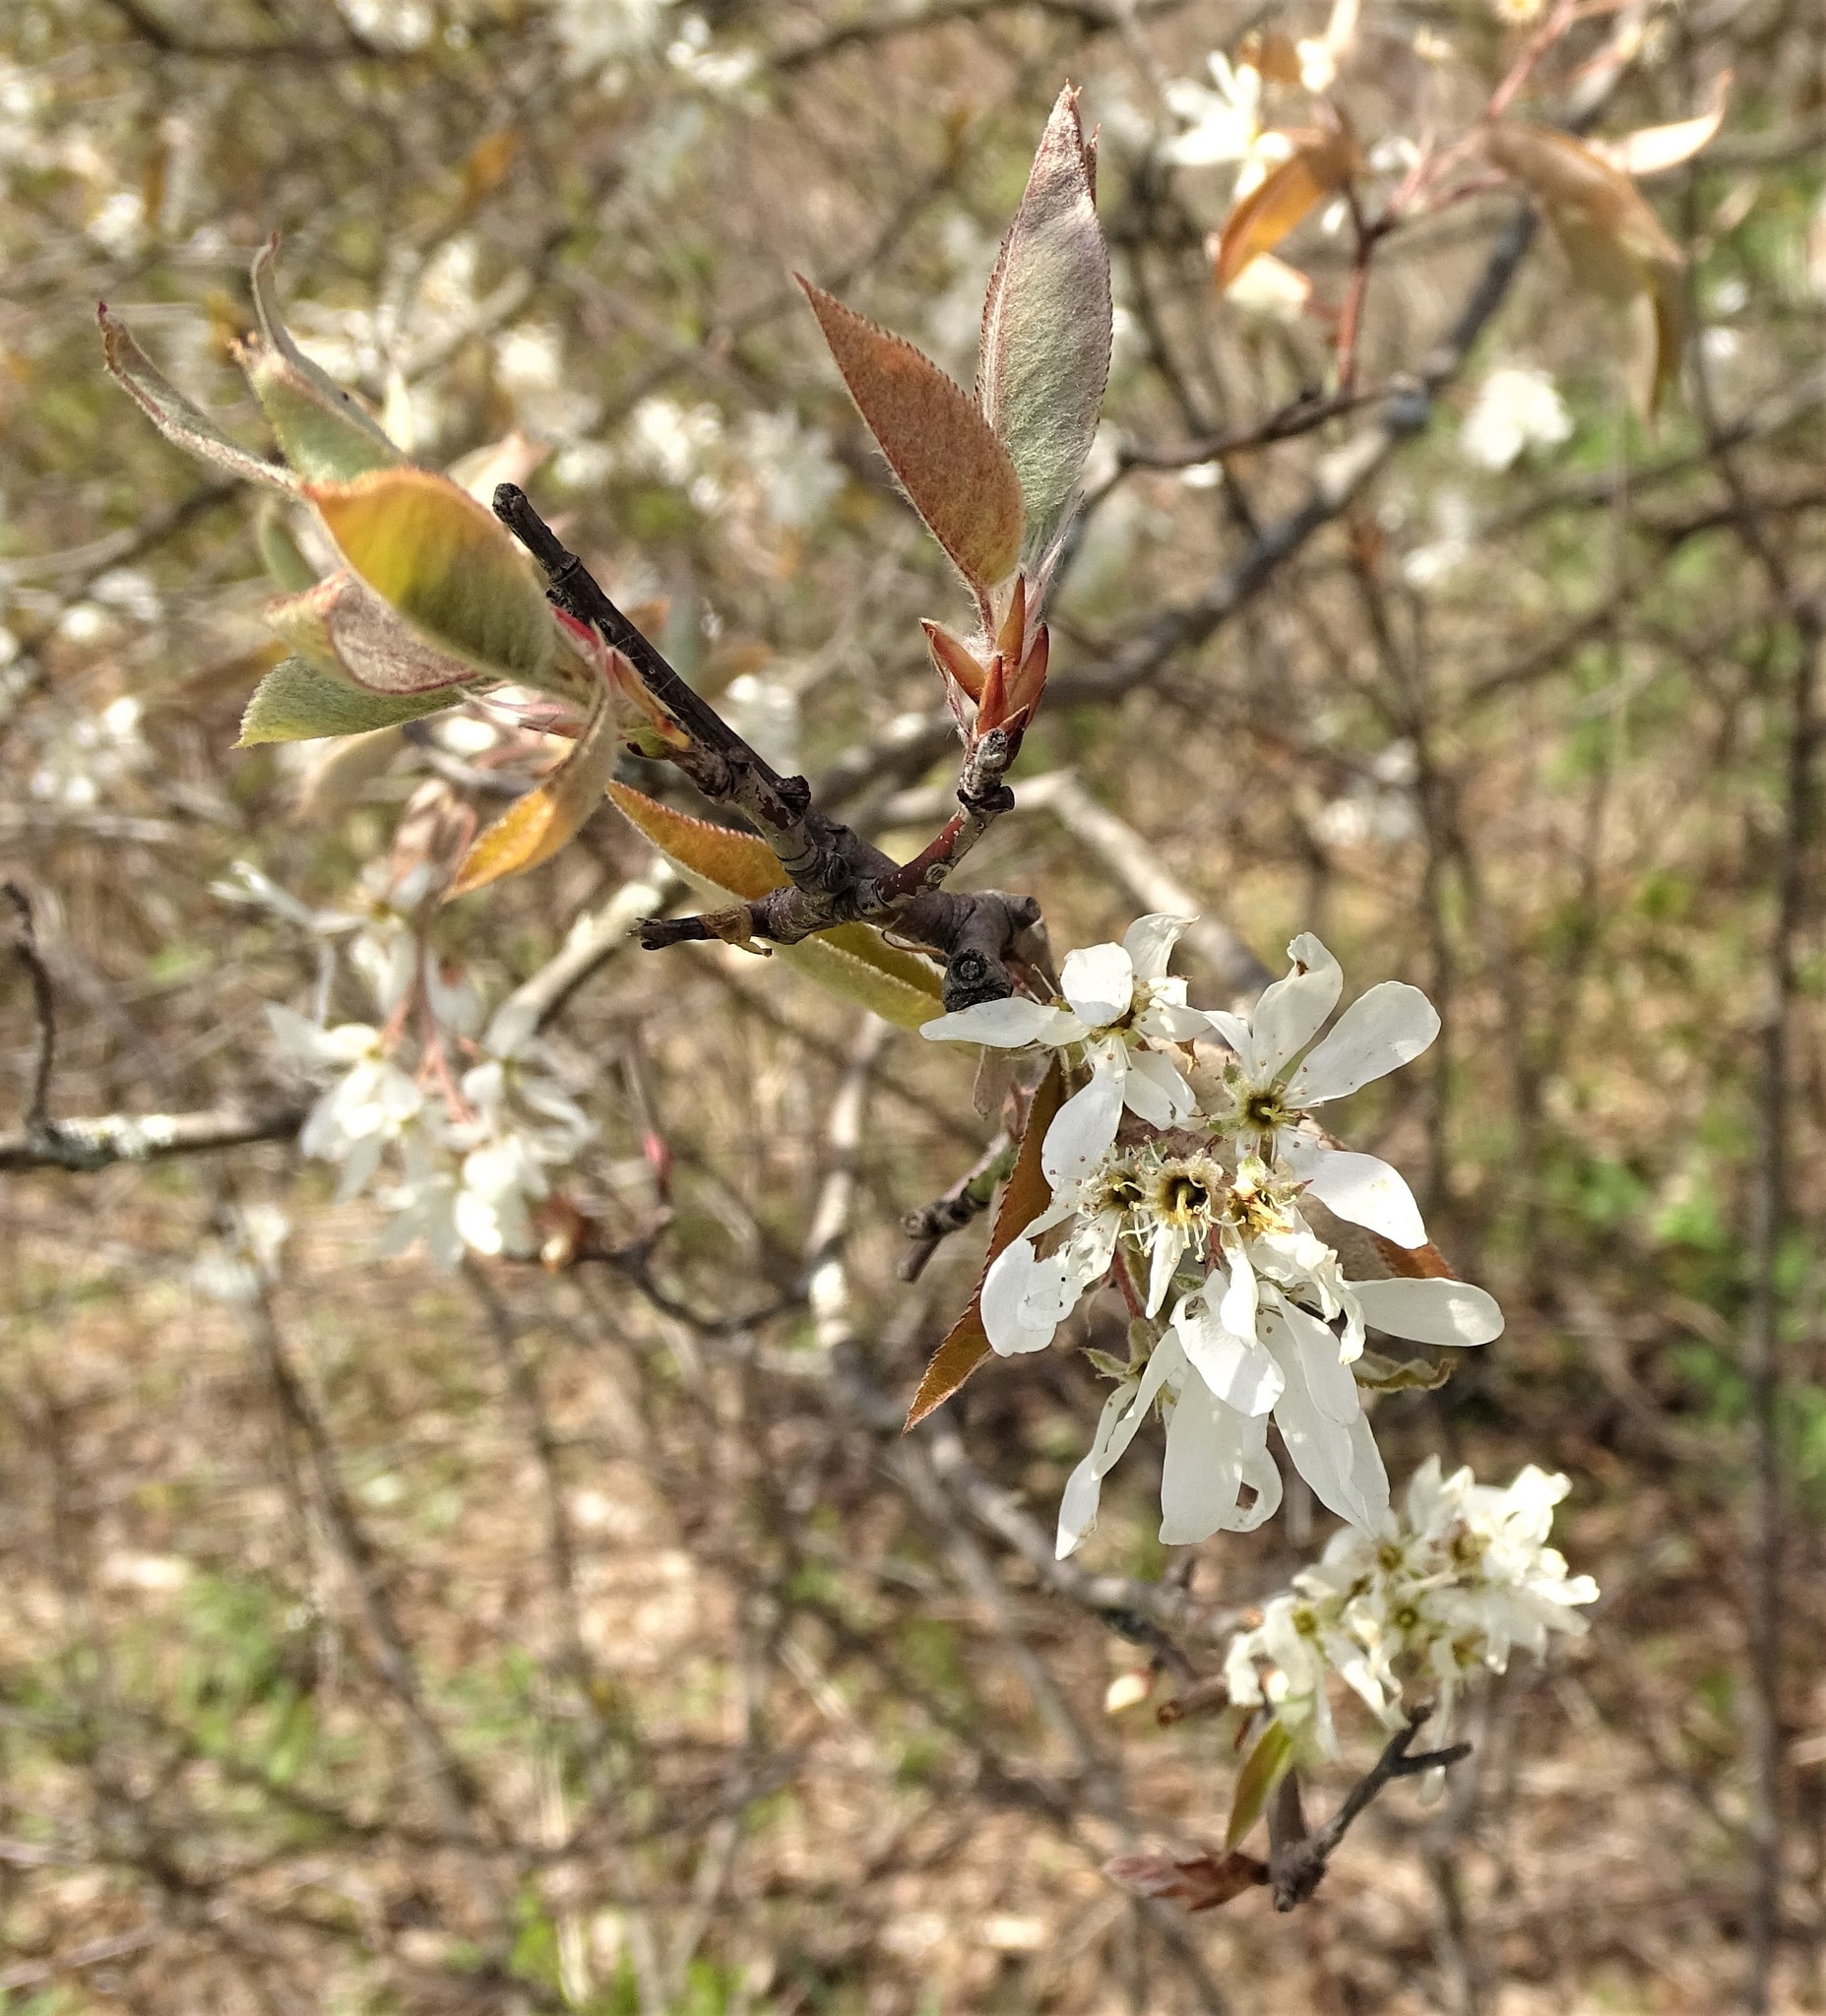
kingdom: Plantae
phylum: Tracheophyta
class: Magnoliopsida
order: Rosales
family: Rosaceae
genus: Amelanchier
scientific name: Amelanchier arborea
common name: Downy serviceberry
